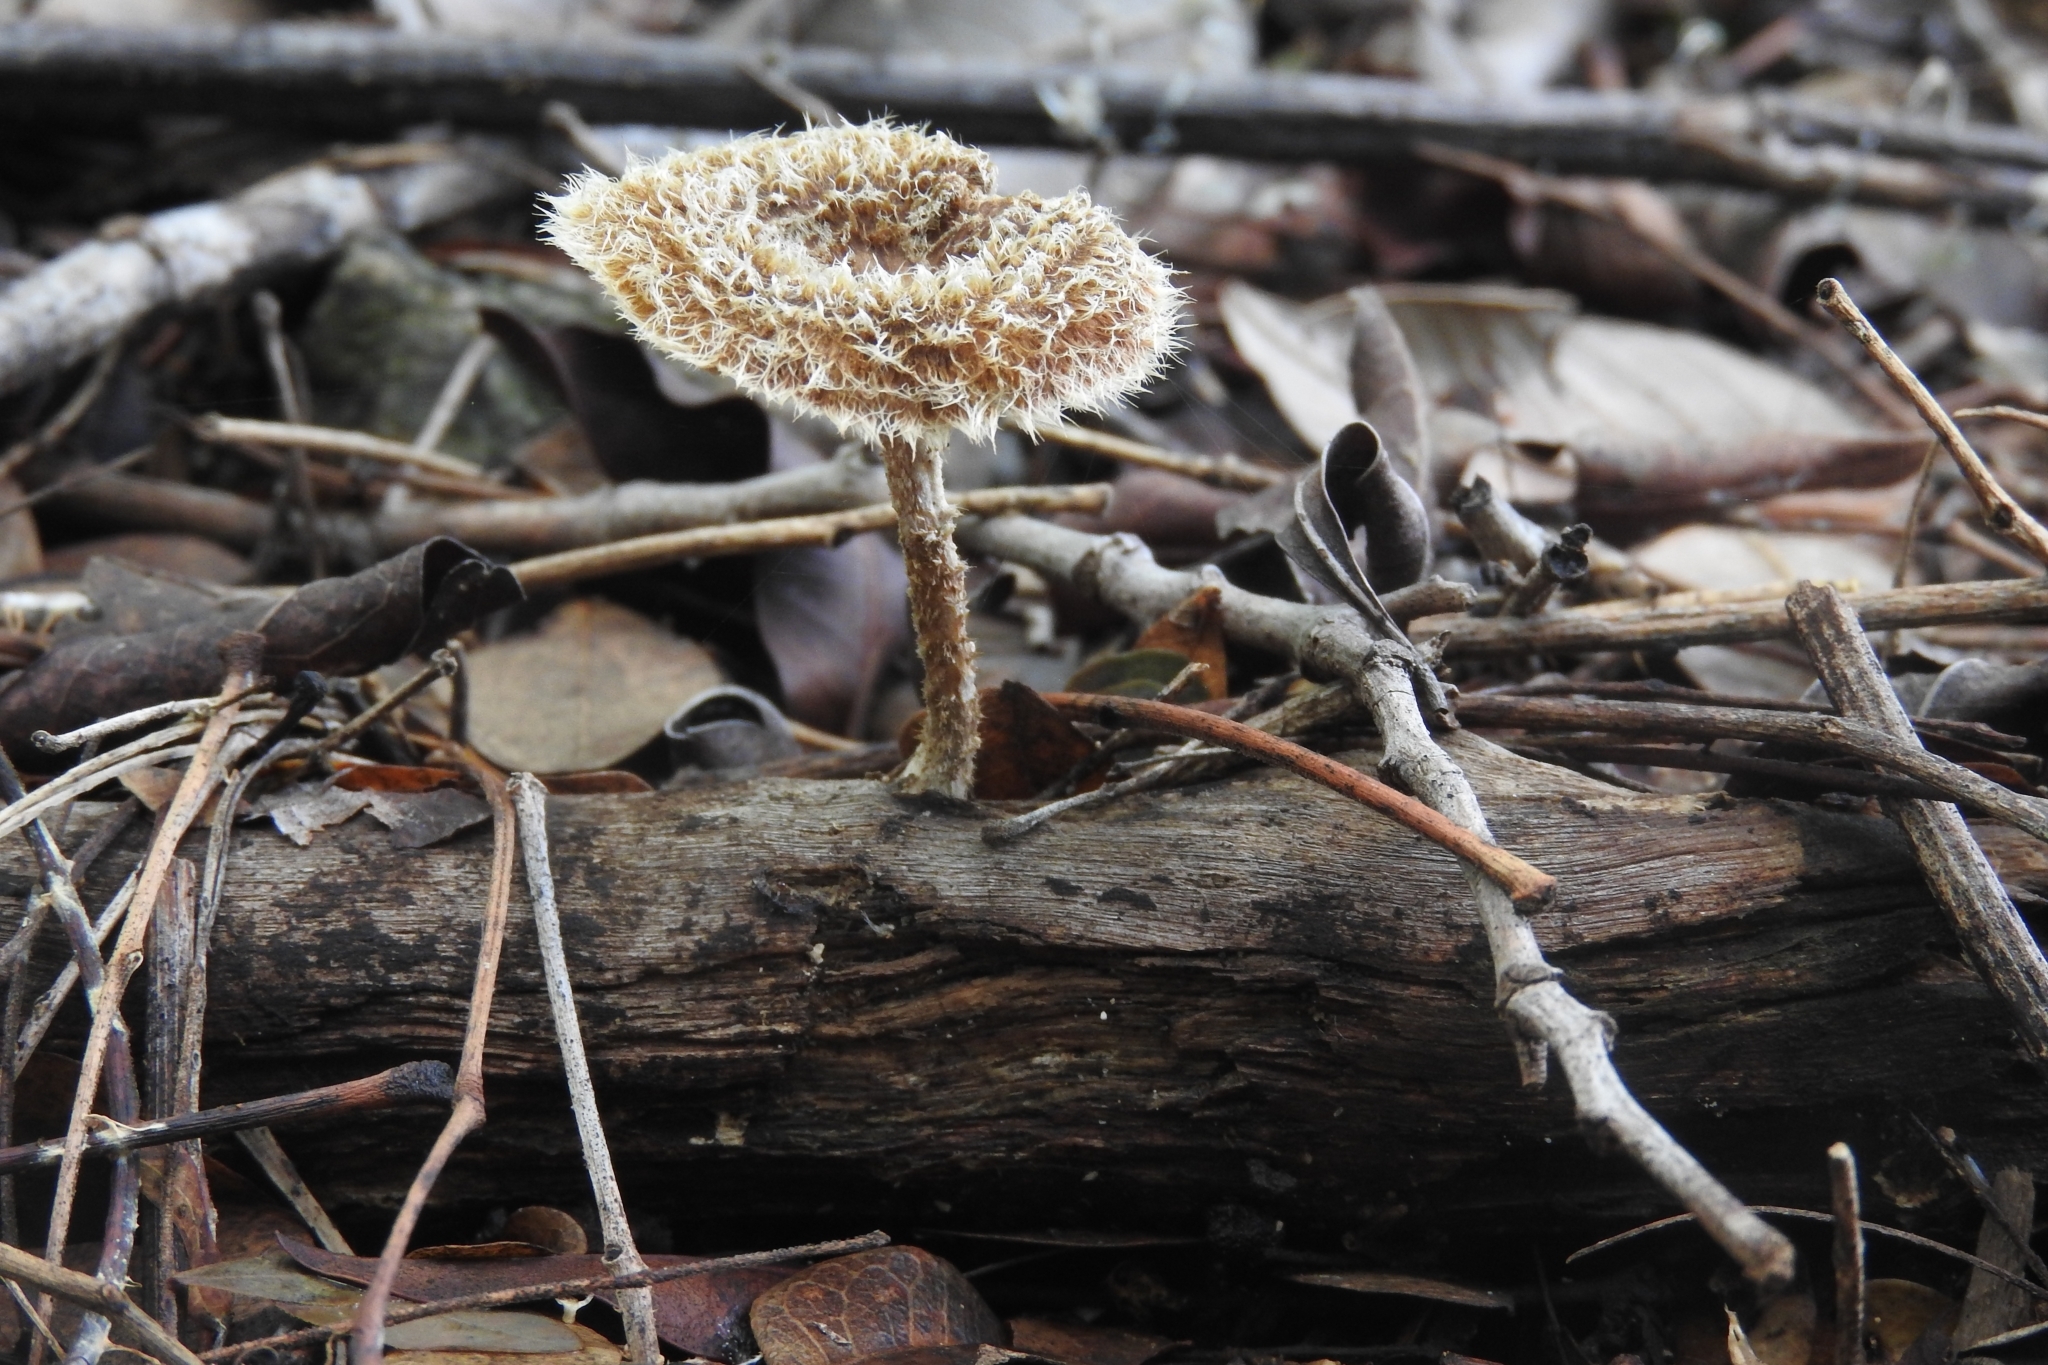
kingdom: Fungi
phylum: Basidiomycota
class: Agaricomycetes
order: Polyporales
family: Polyporaceae
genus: Lentinus
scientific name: Lentinus crinitus
